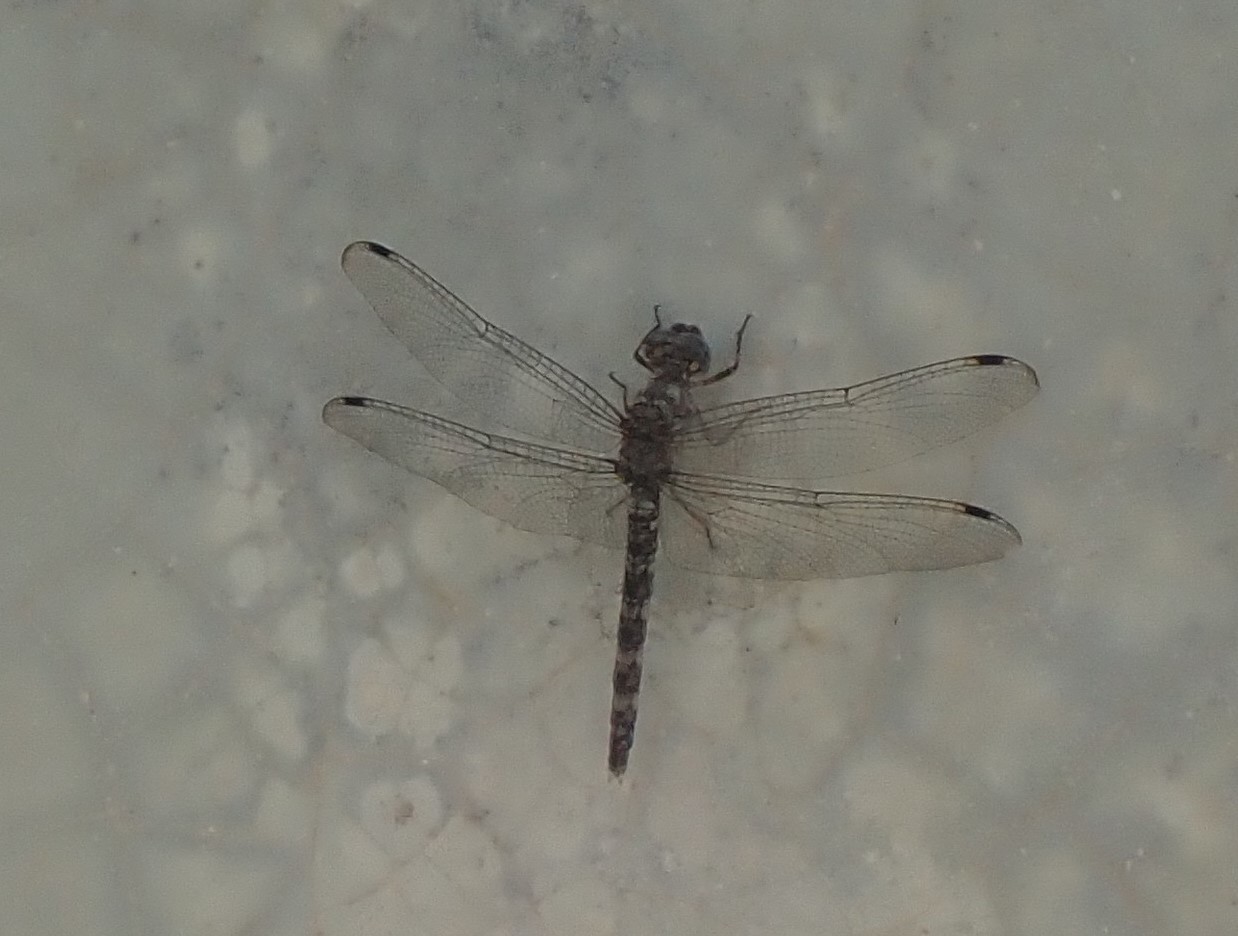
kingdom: Animalia
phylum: Arthropoda
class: Insecta
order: Odonata
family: Libellulidae
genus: Bradinopyga
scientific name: Bradinopyga geminata
